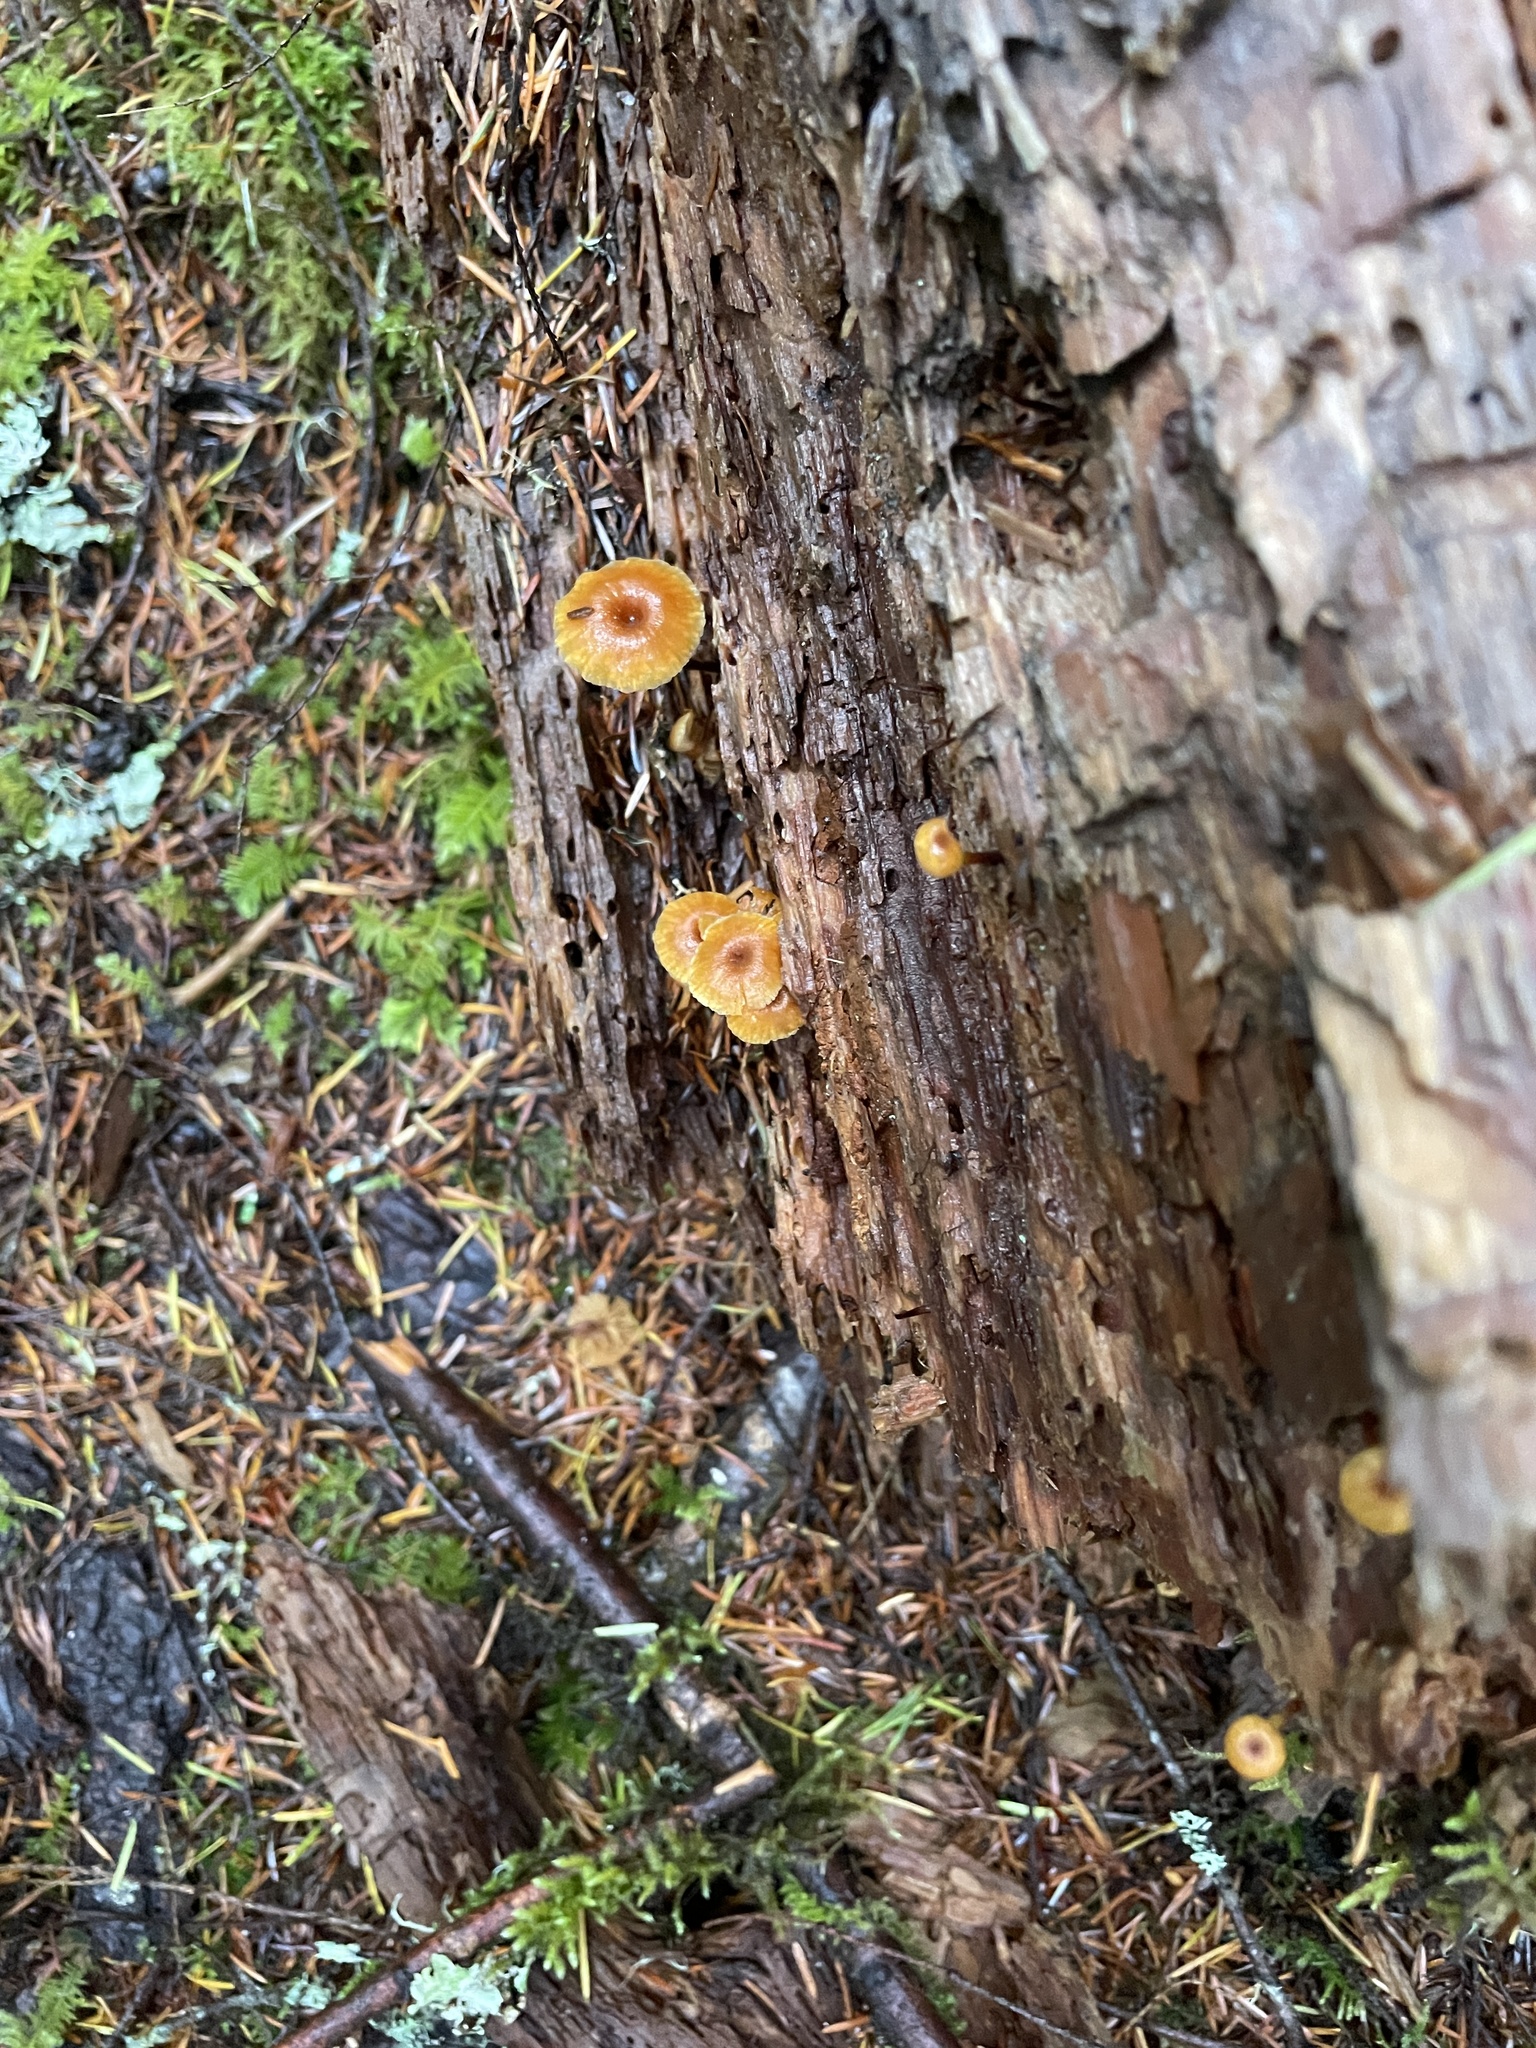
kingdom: Fungi
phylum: Basidiomycota
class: Agaricomycetes
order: Agaricales
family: Mycenaceae
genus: Xeromphalina
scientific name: Xeromphalina campanella
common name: Pinewood gingertail
